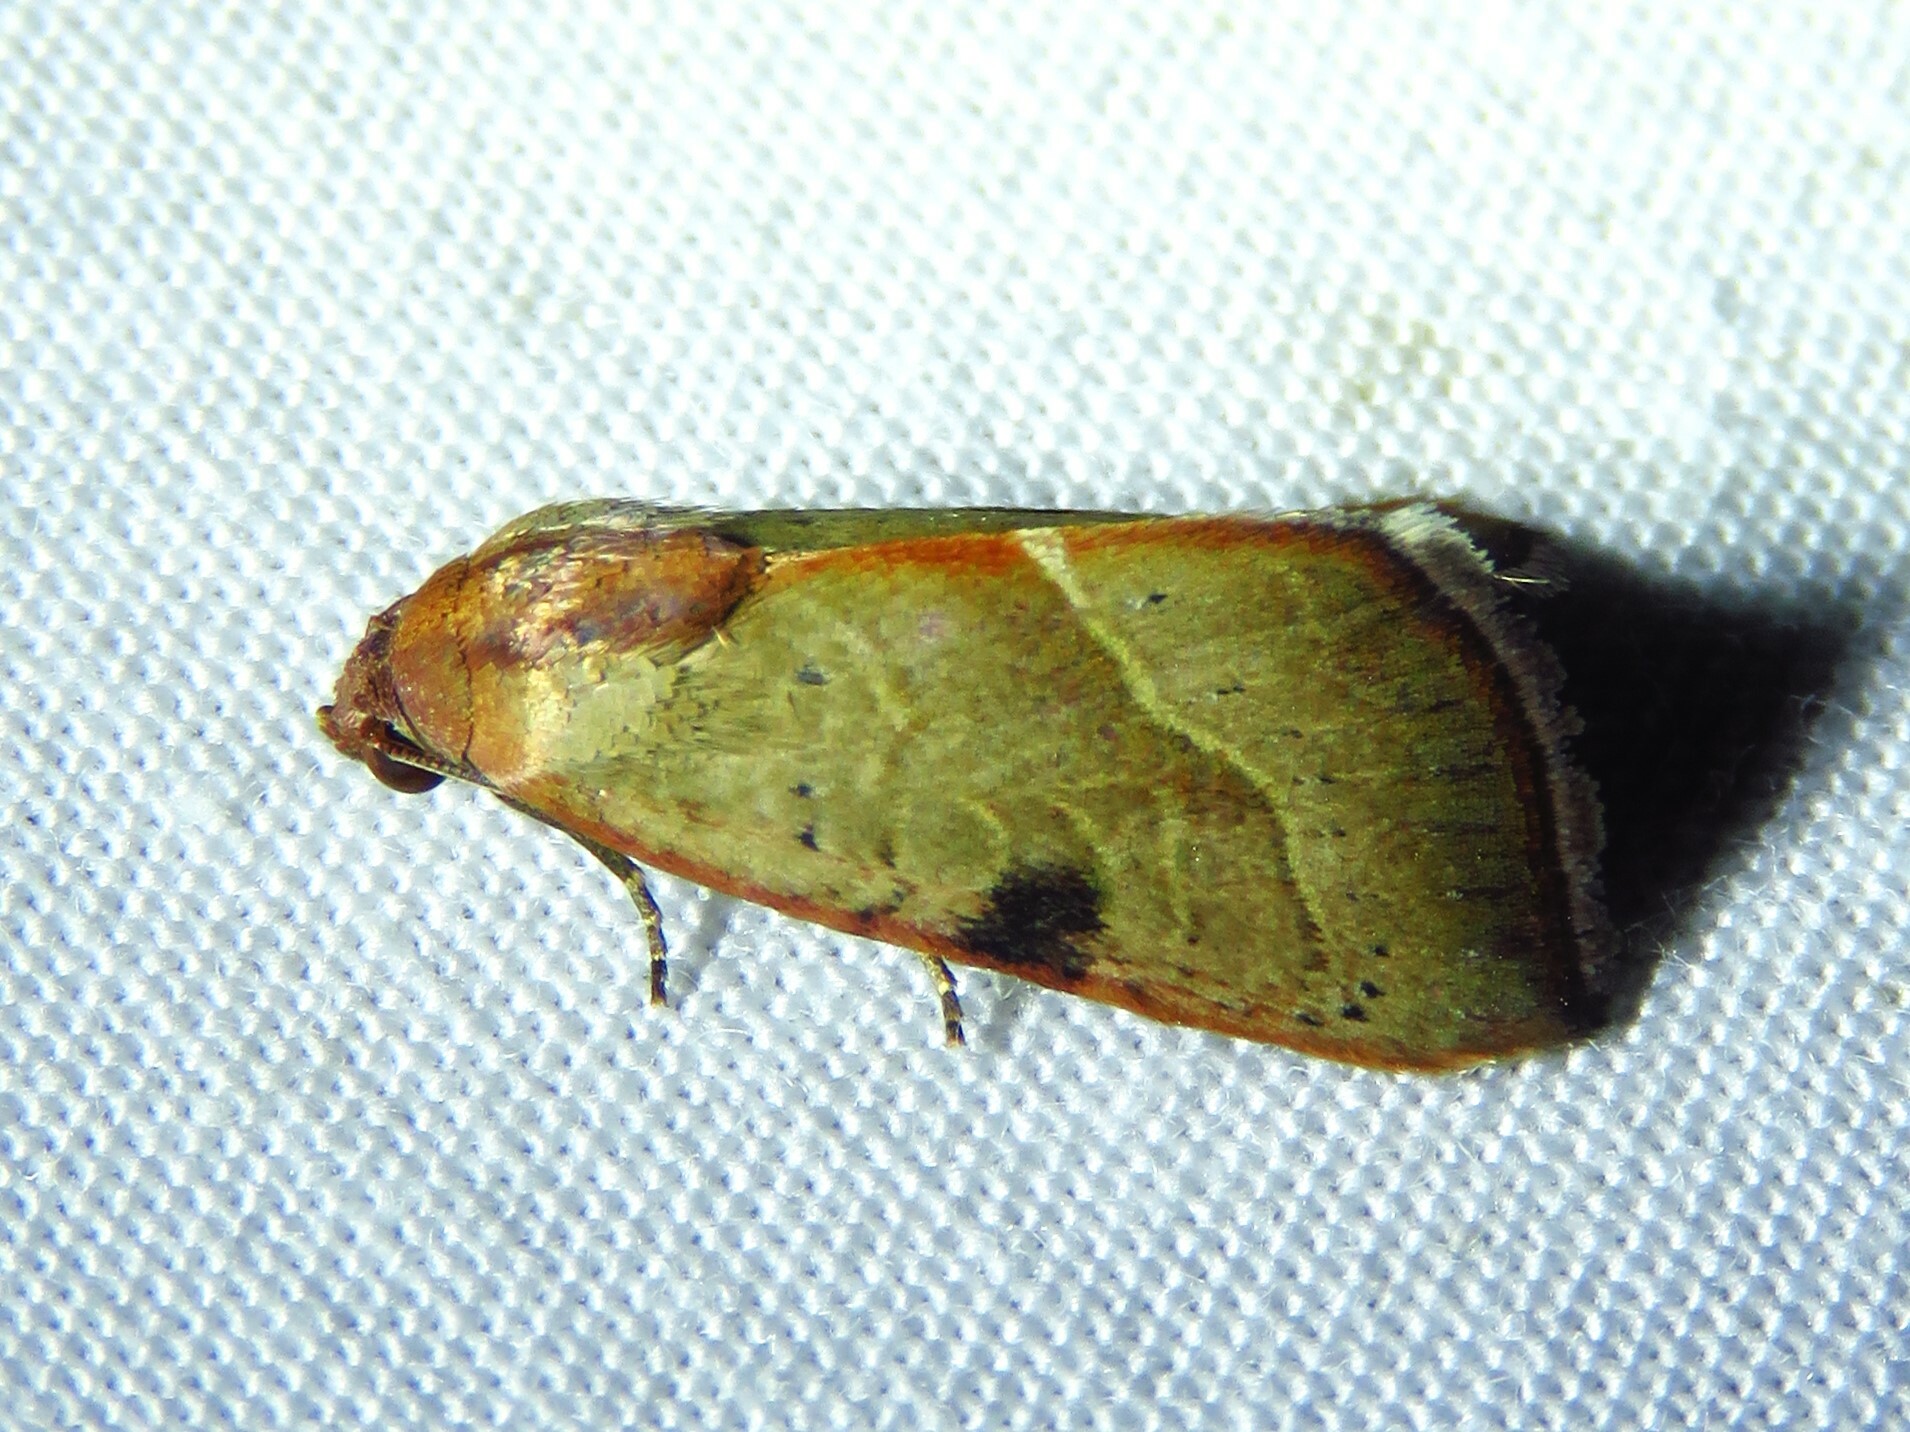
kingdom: Animalia
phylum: Arthropoda
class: Insecta
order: Lepidoptera
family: Noctuidae
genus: Galgula
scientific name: Galgula partita
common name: Wedgeling
